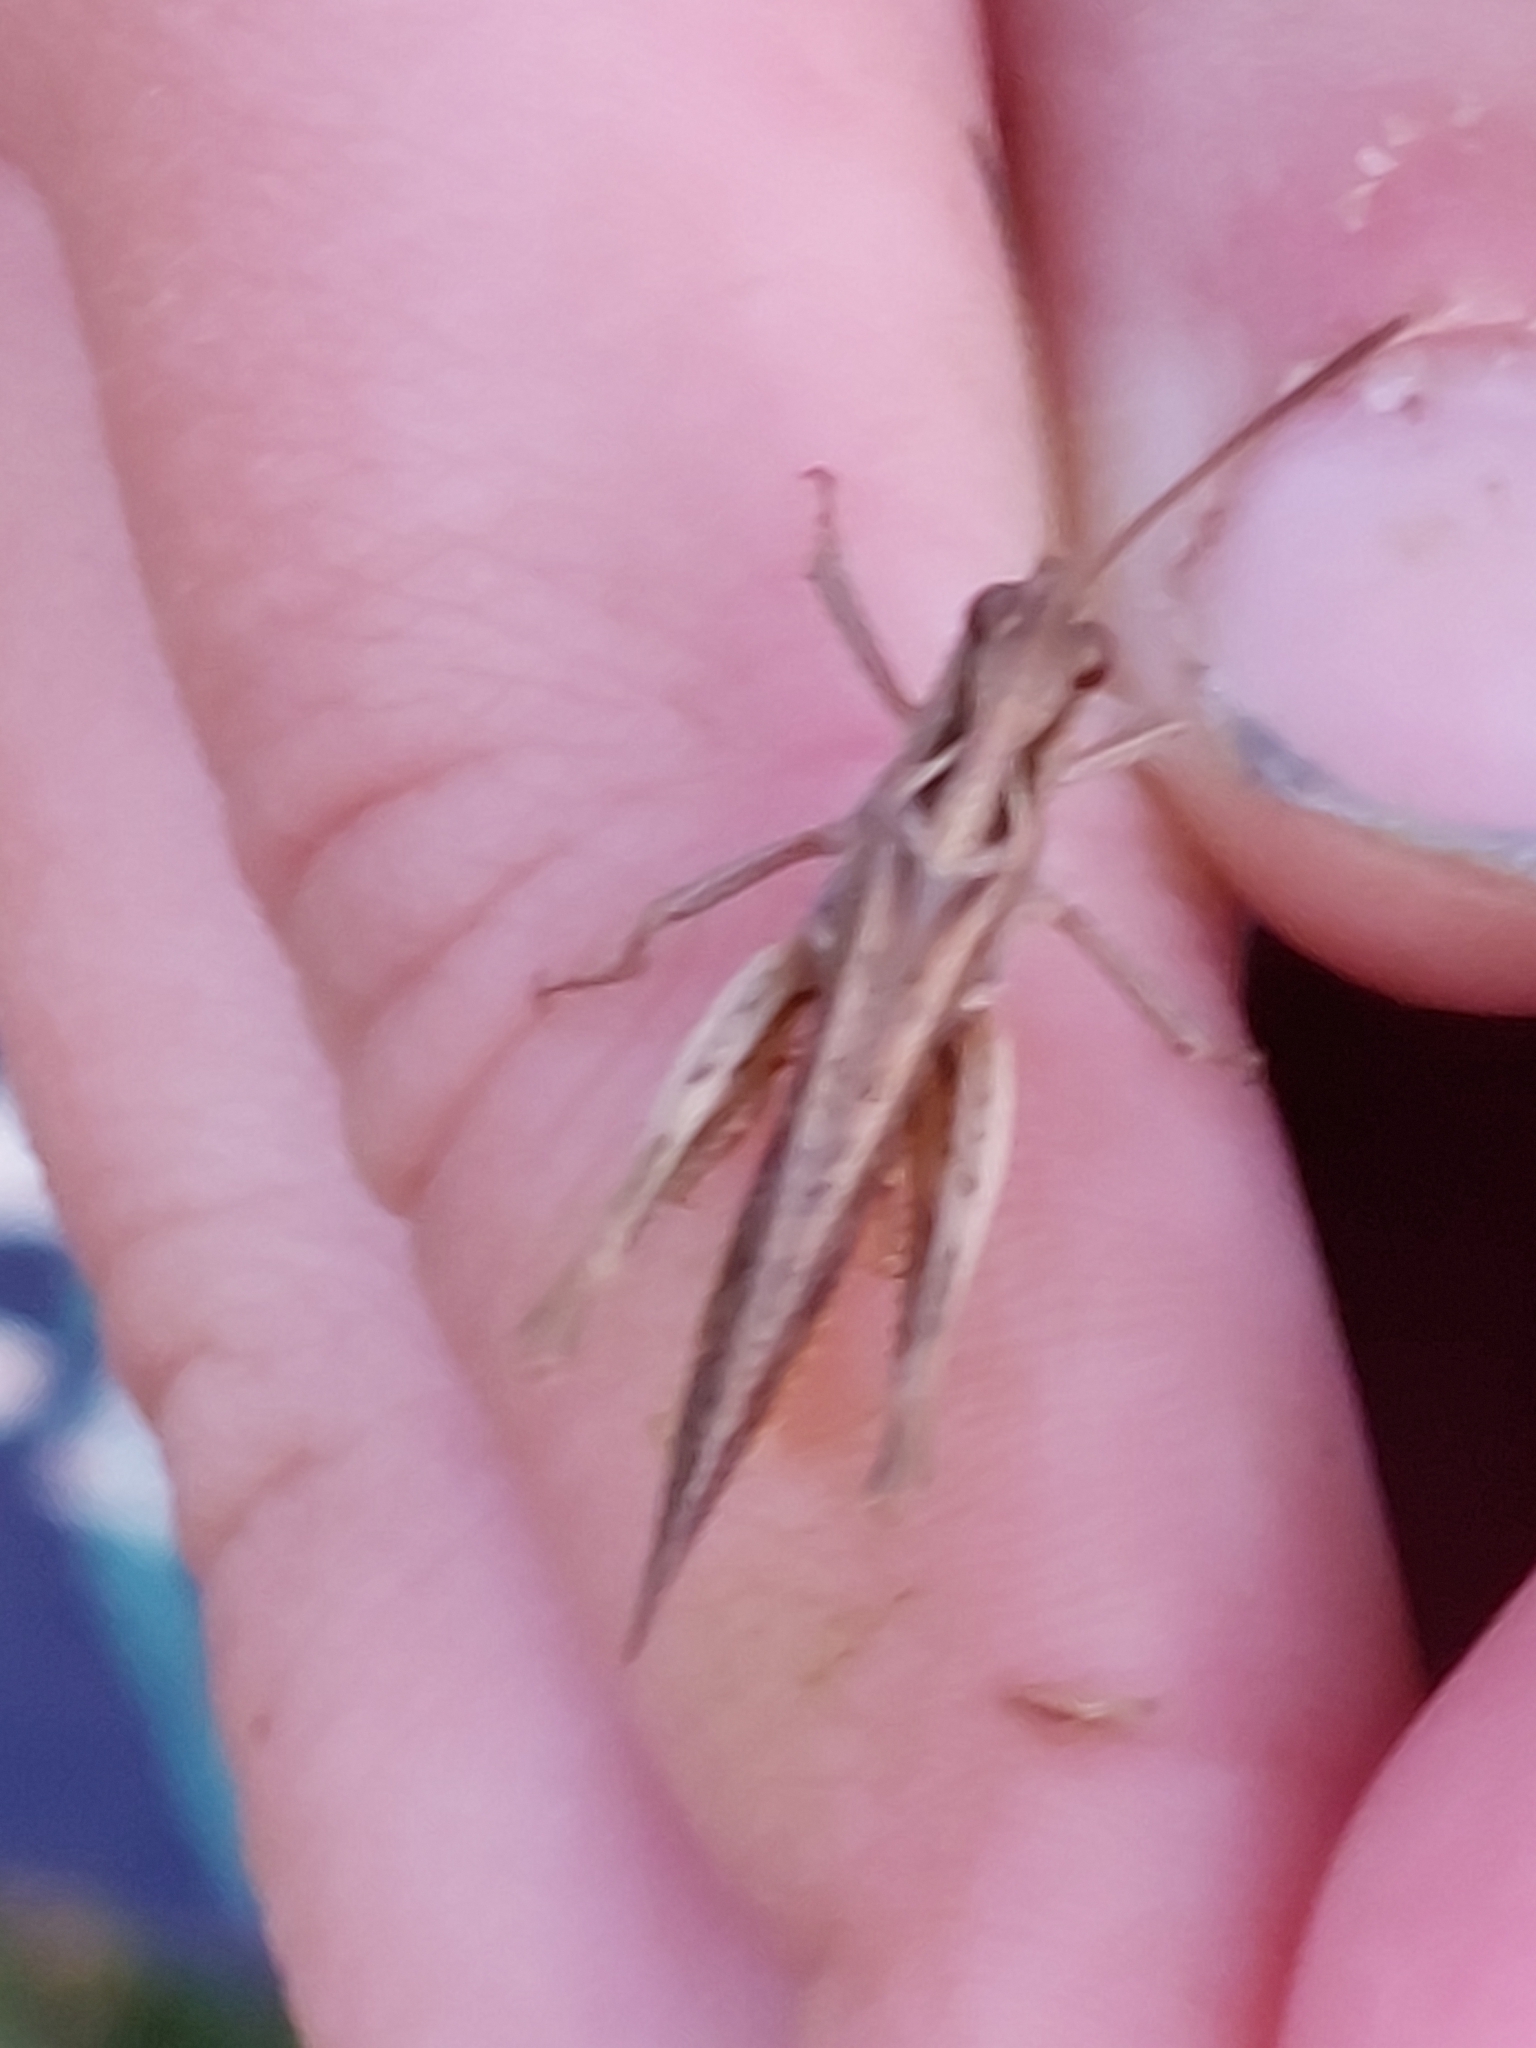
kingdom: Animalia
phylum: Arthropoda
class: Insecta
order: Orthoptera
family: Acrididae
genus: Chorthippus
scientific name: Chorthippus brunneus
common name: Field grasshopper
